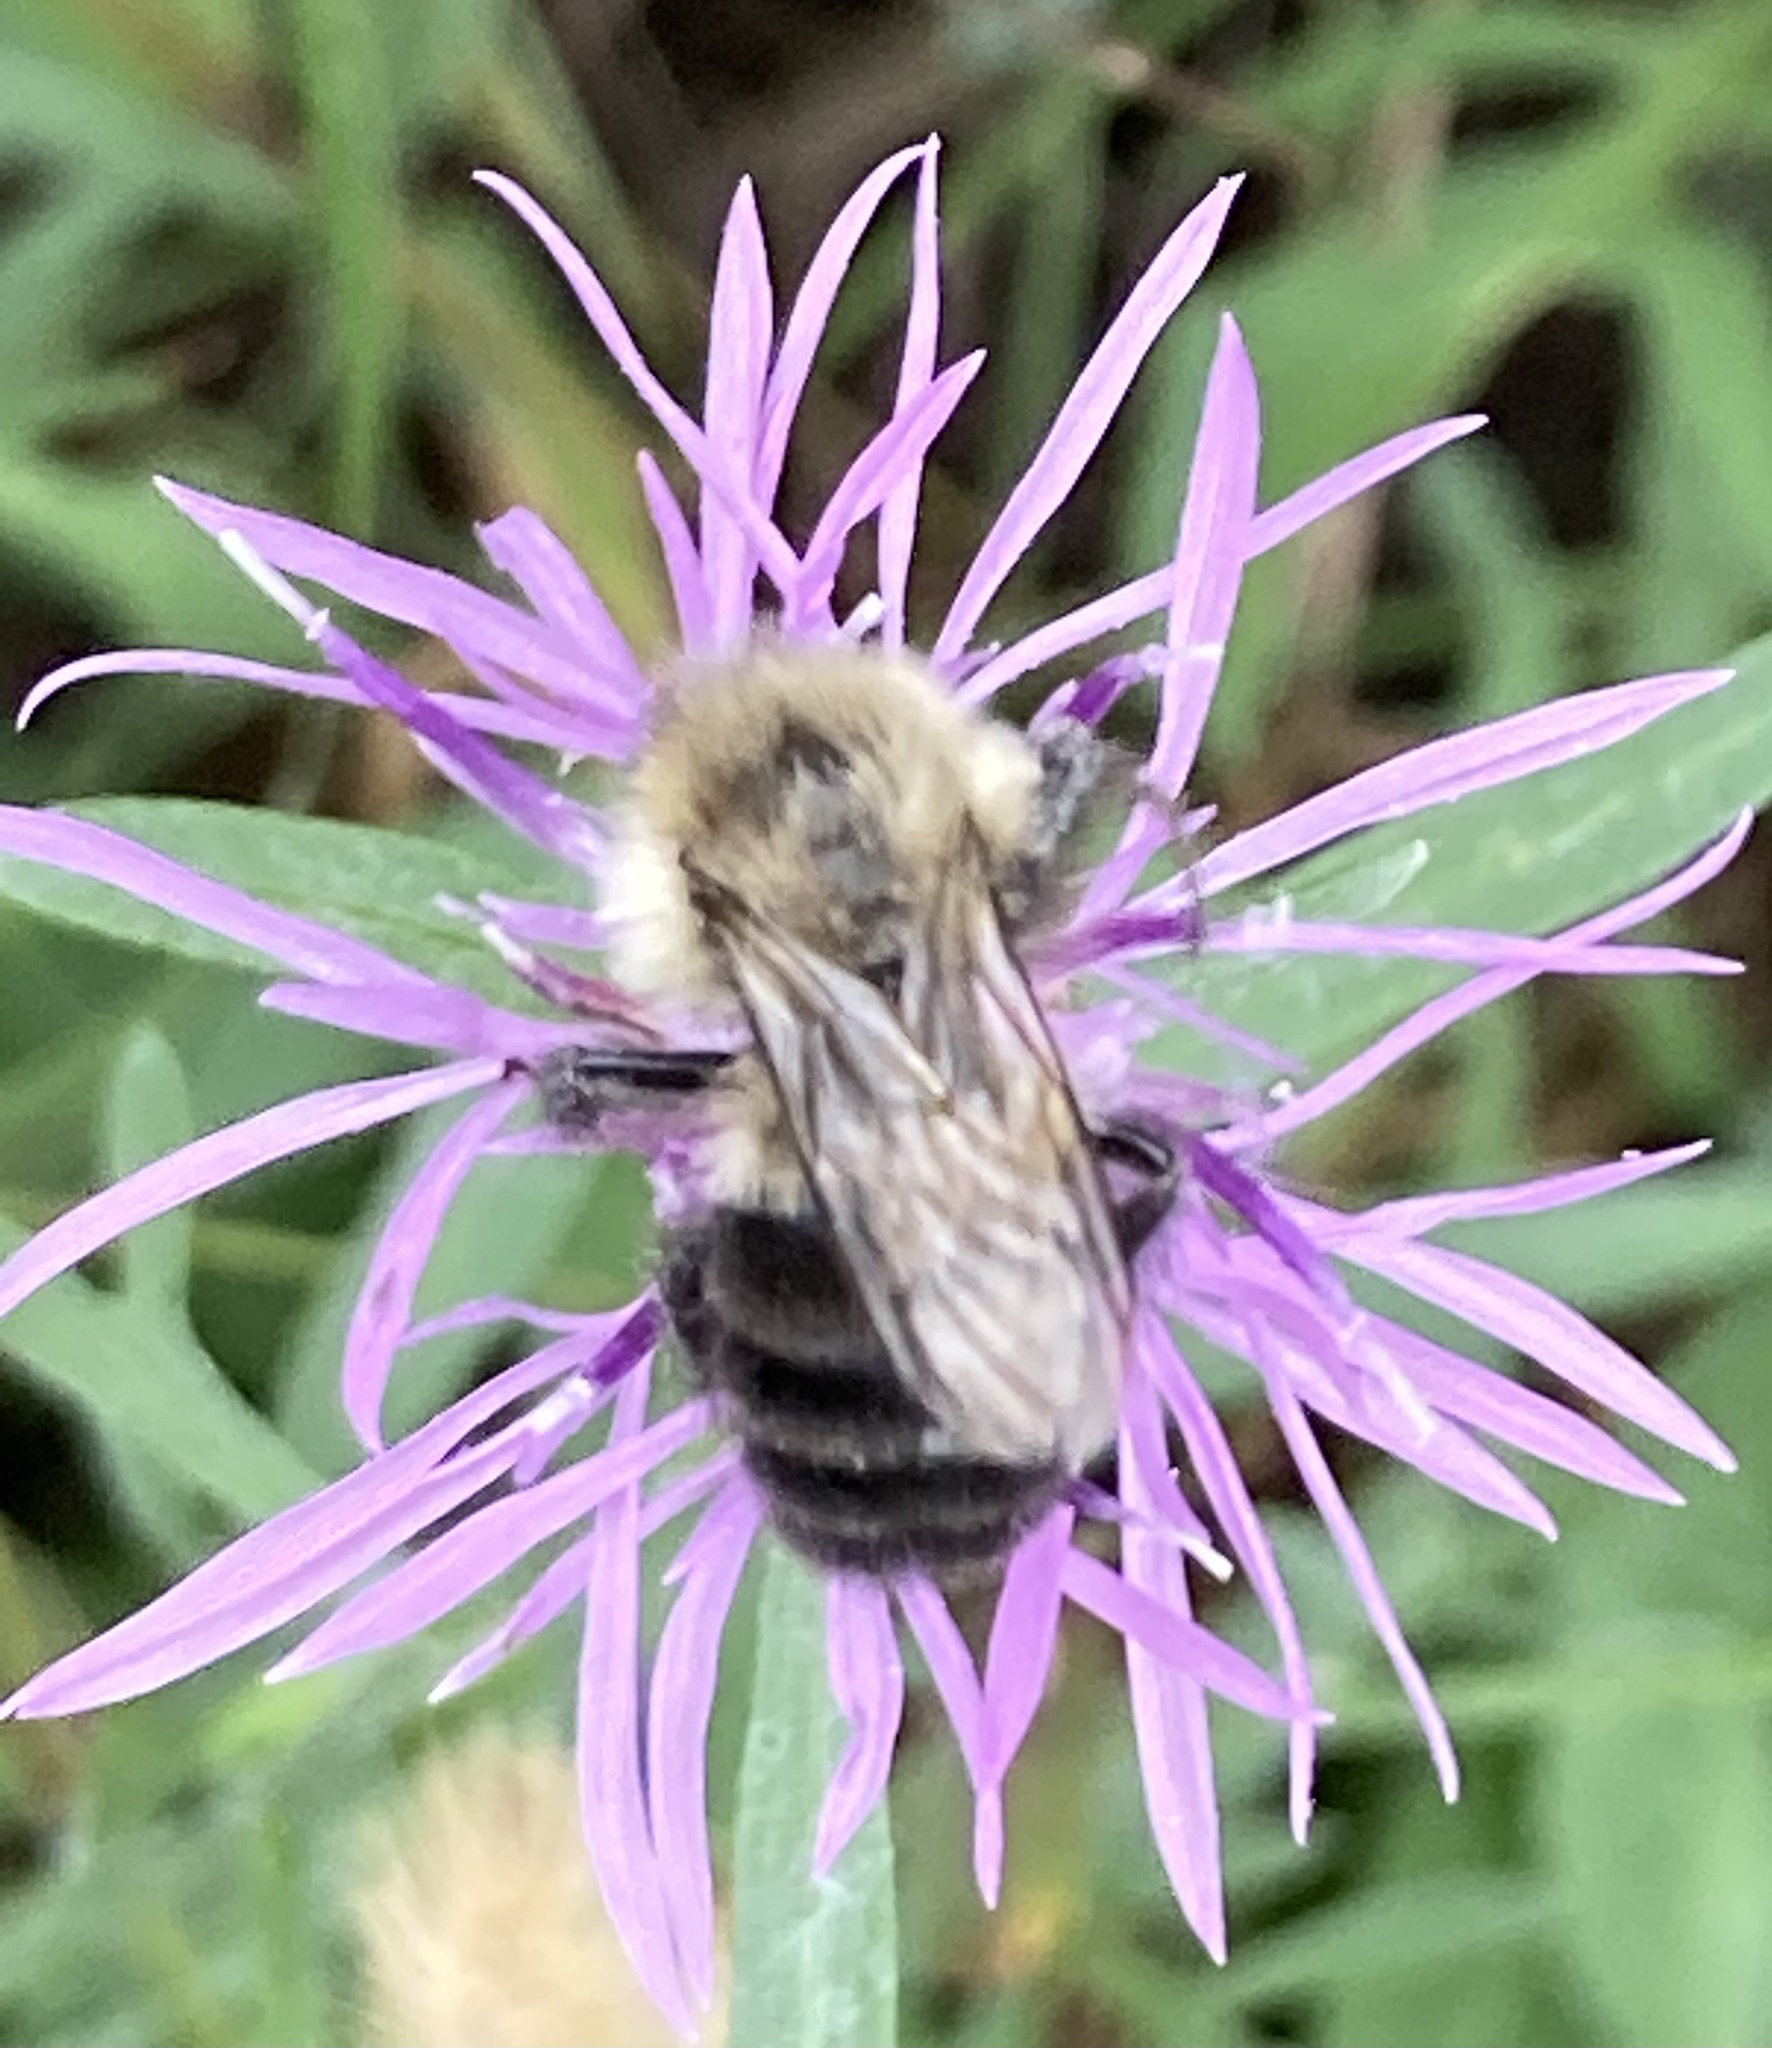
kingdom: Animalia
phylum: Arthropoda
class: Insecta
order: Hymenoptera
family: Apidae
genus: Bombus
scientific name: Bombus impatiens
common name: Common eastern bumble bee
